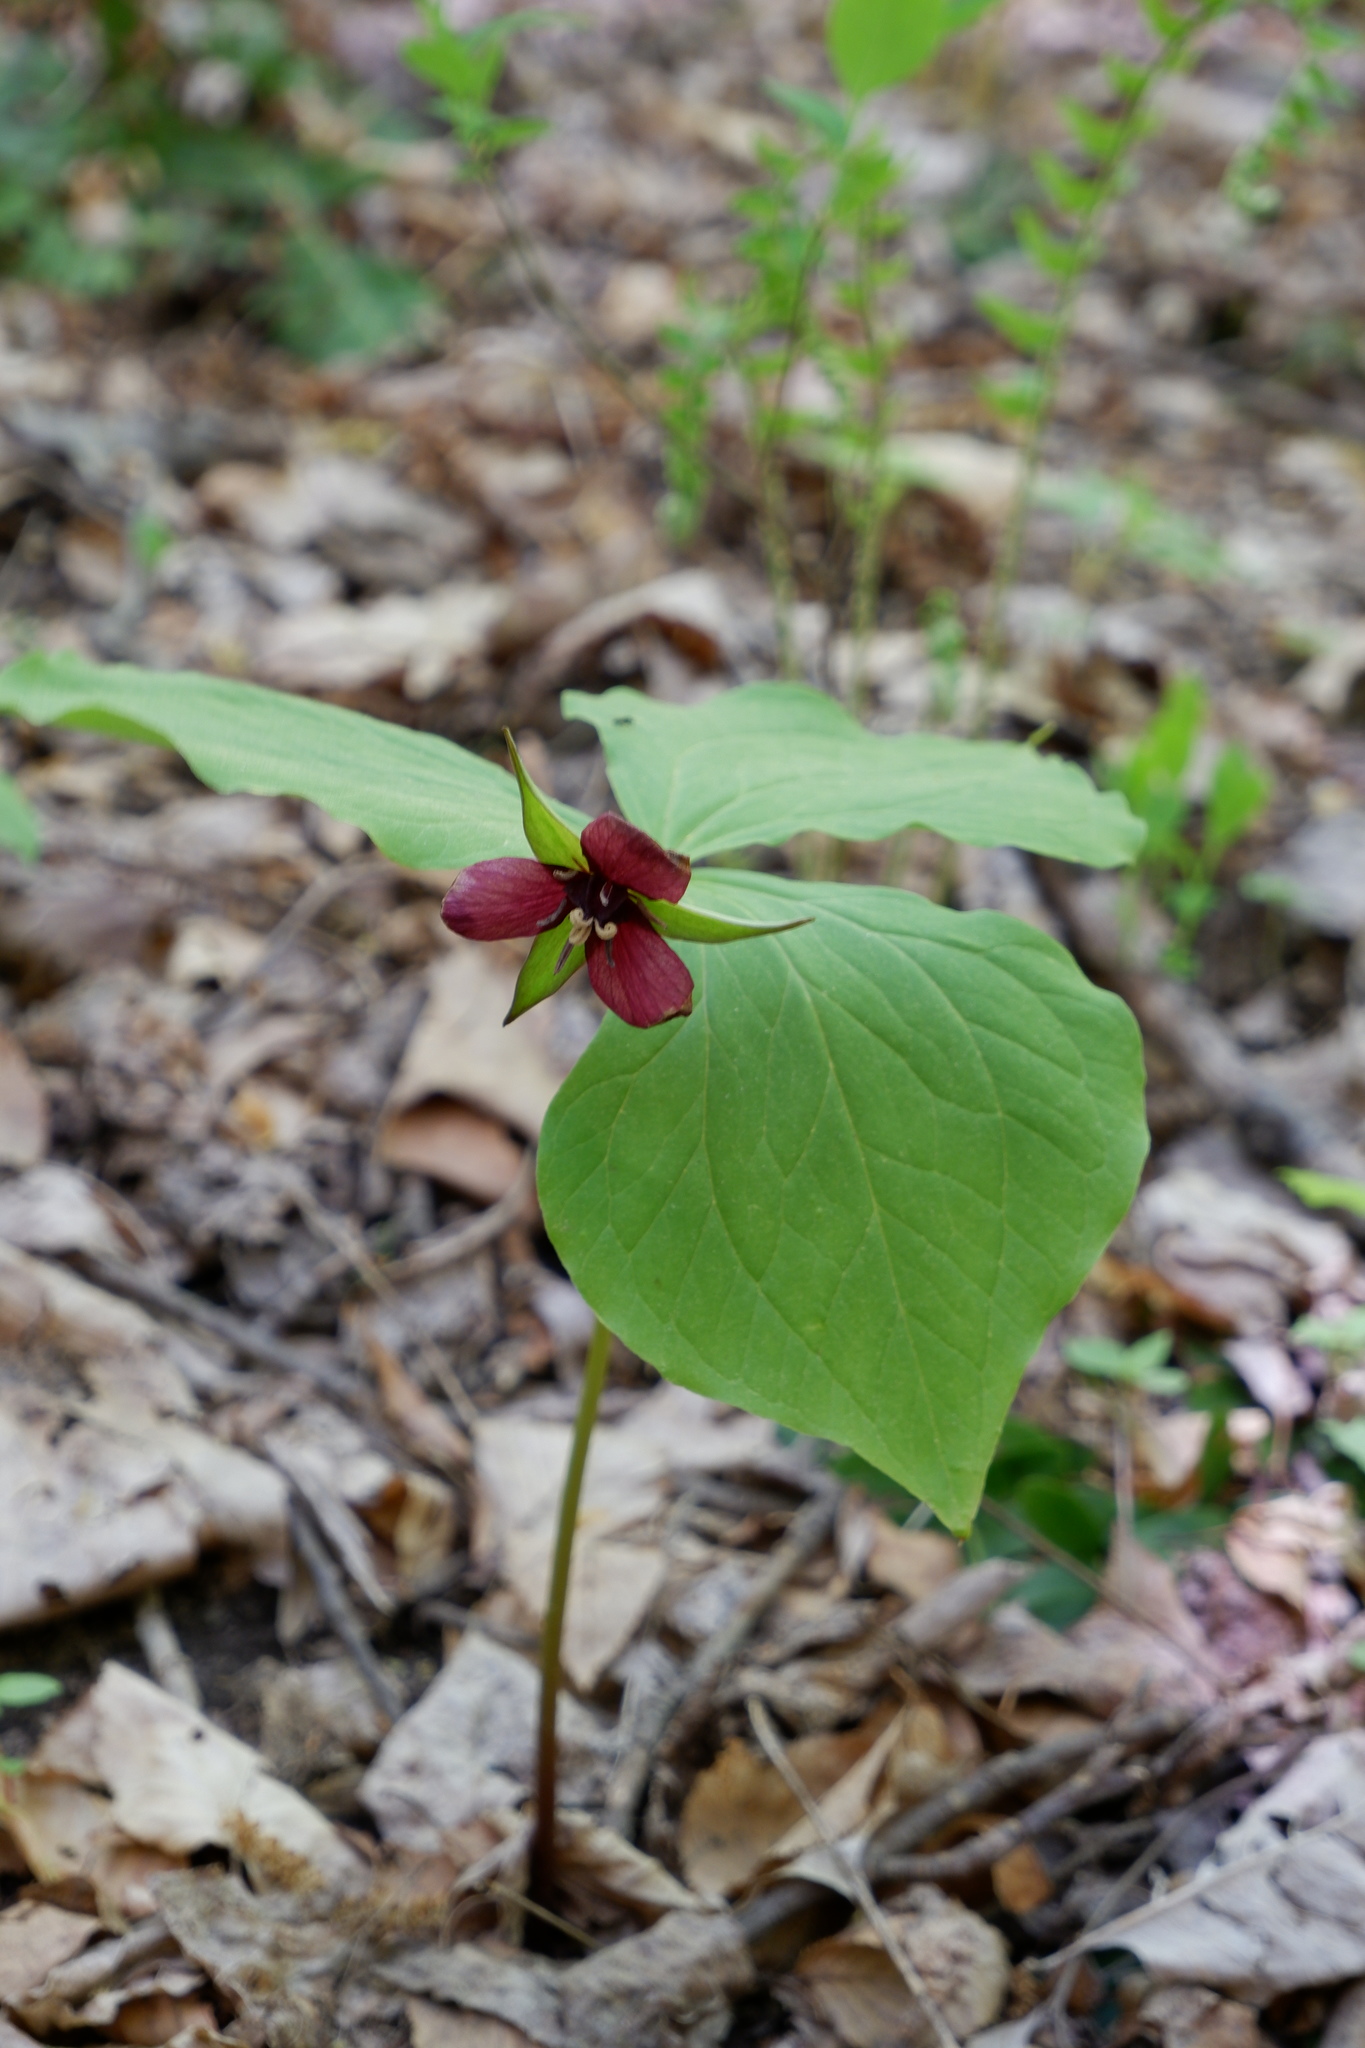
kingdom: Plantae
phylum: Tracheophyta
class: Liliopsida
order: Liliales
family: Melanthiaceae
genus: Trillium
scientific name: Trillium erectum
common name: Purple trillium
